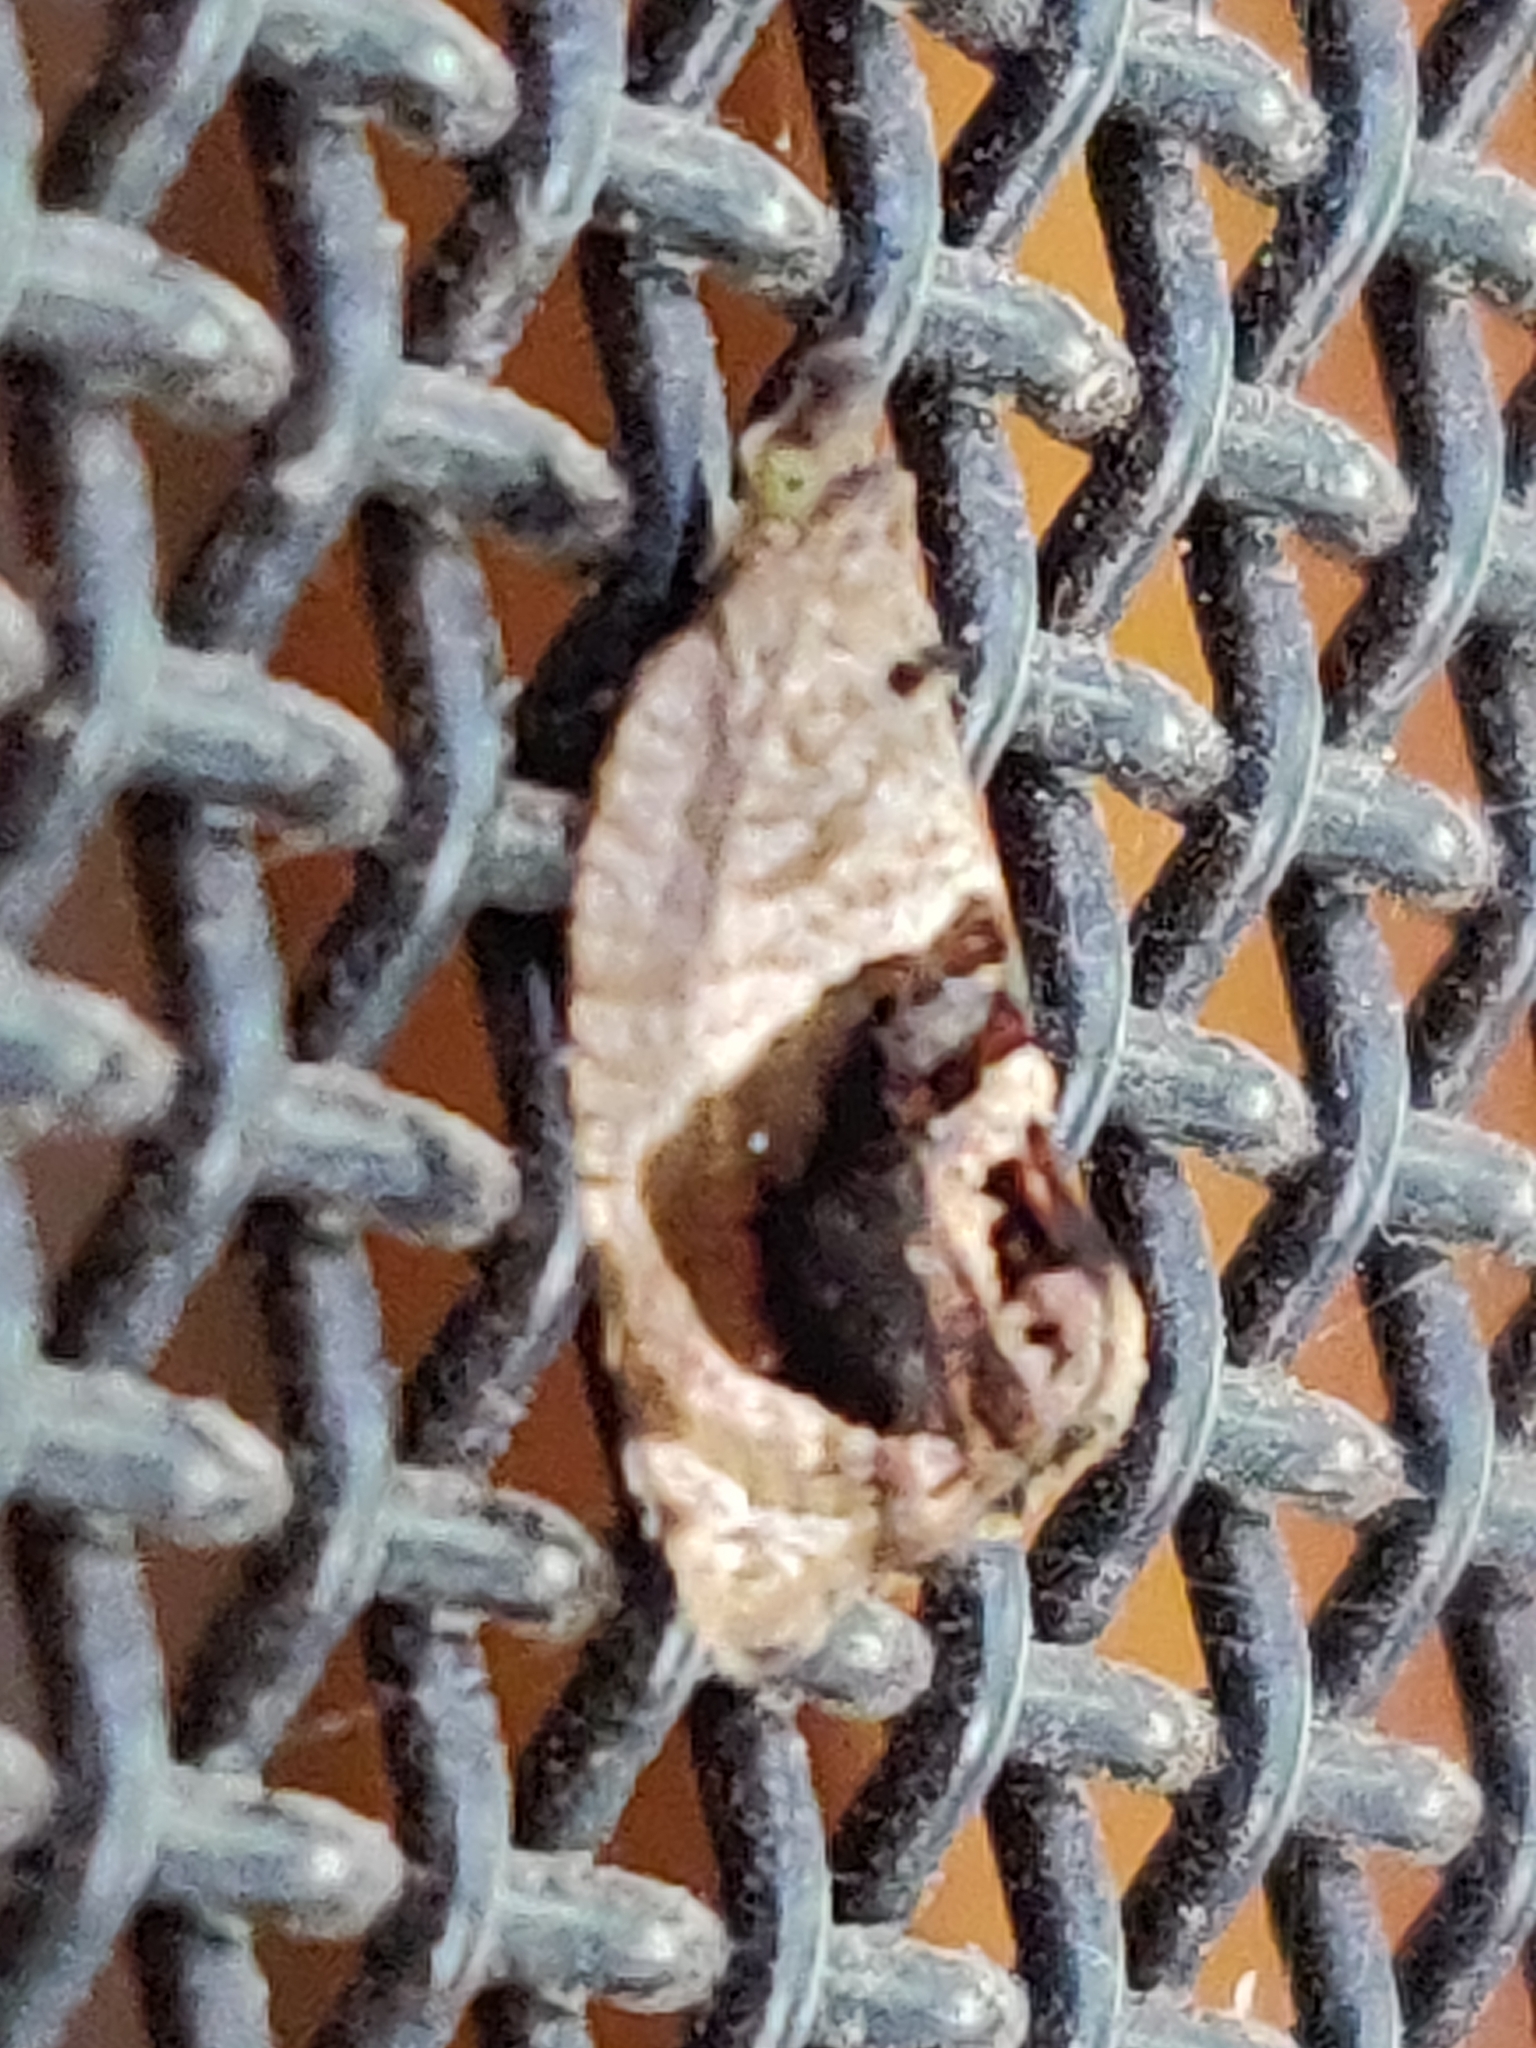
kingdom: Animalia
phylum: Arthropoda
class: Insecta
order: Lepidoptera
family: Tortricidae
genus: Acroceuthes
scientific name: Acroceuthes metaxanthana
